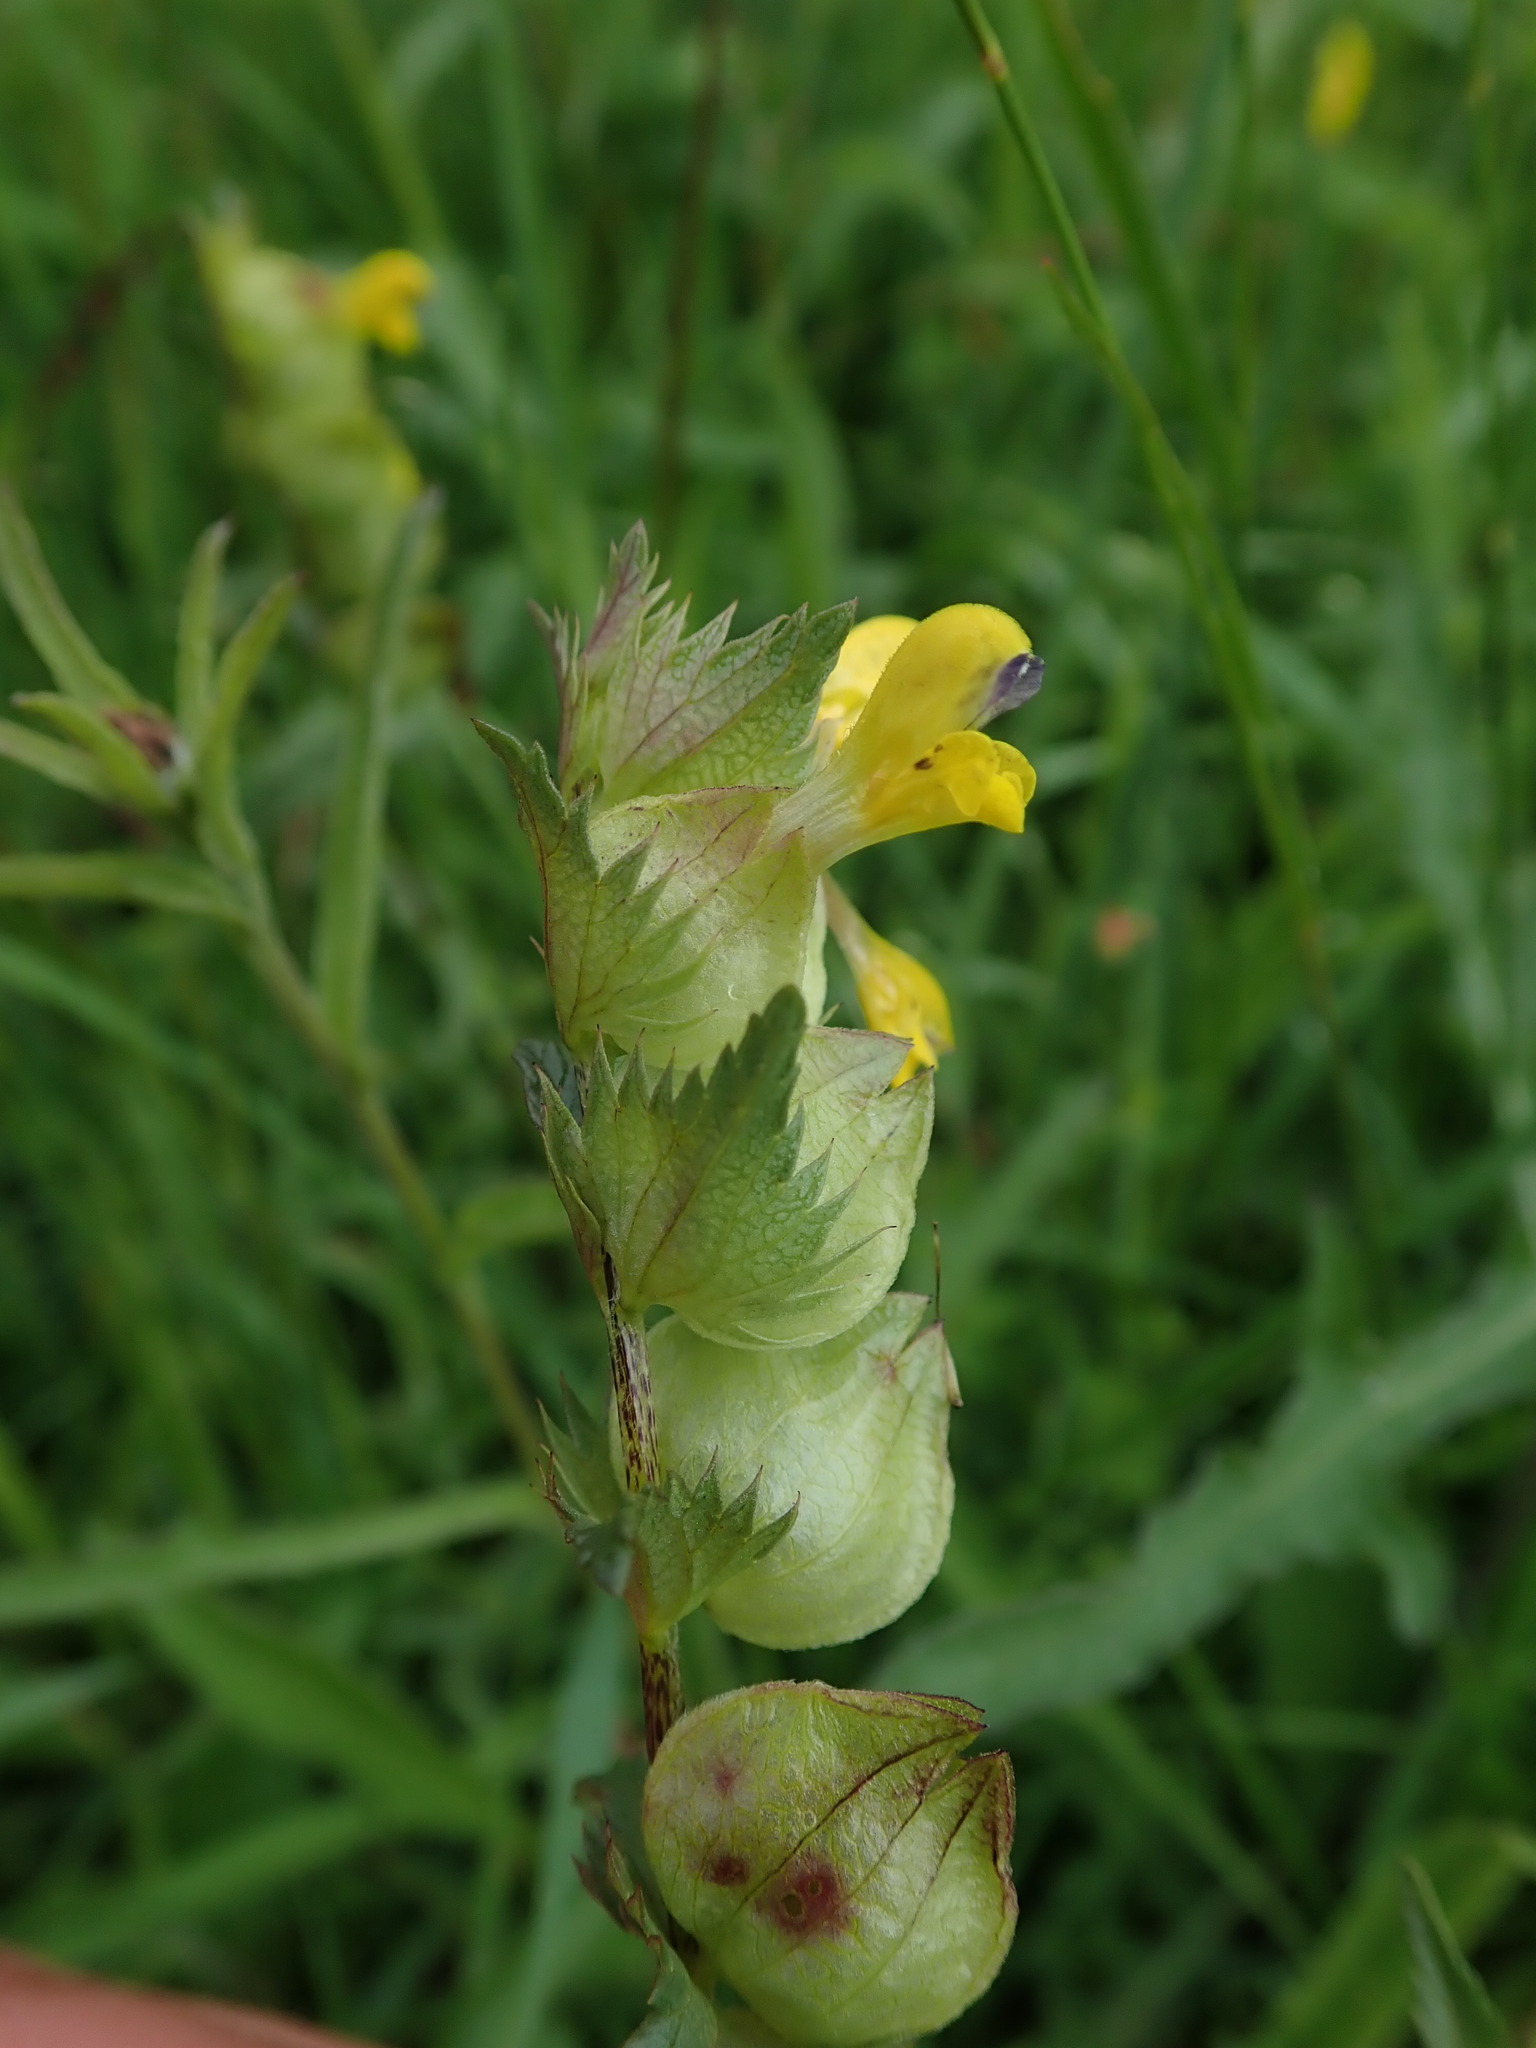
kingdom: Plantae
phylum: Tracheophyta
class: Magnoliopsida
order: Lamiales
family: Orobanchaceae
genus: Rhinanthus
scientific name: Rhinanthus minor
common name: Yellow-rattle
